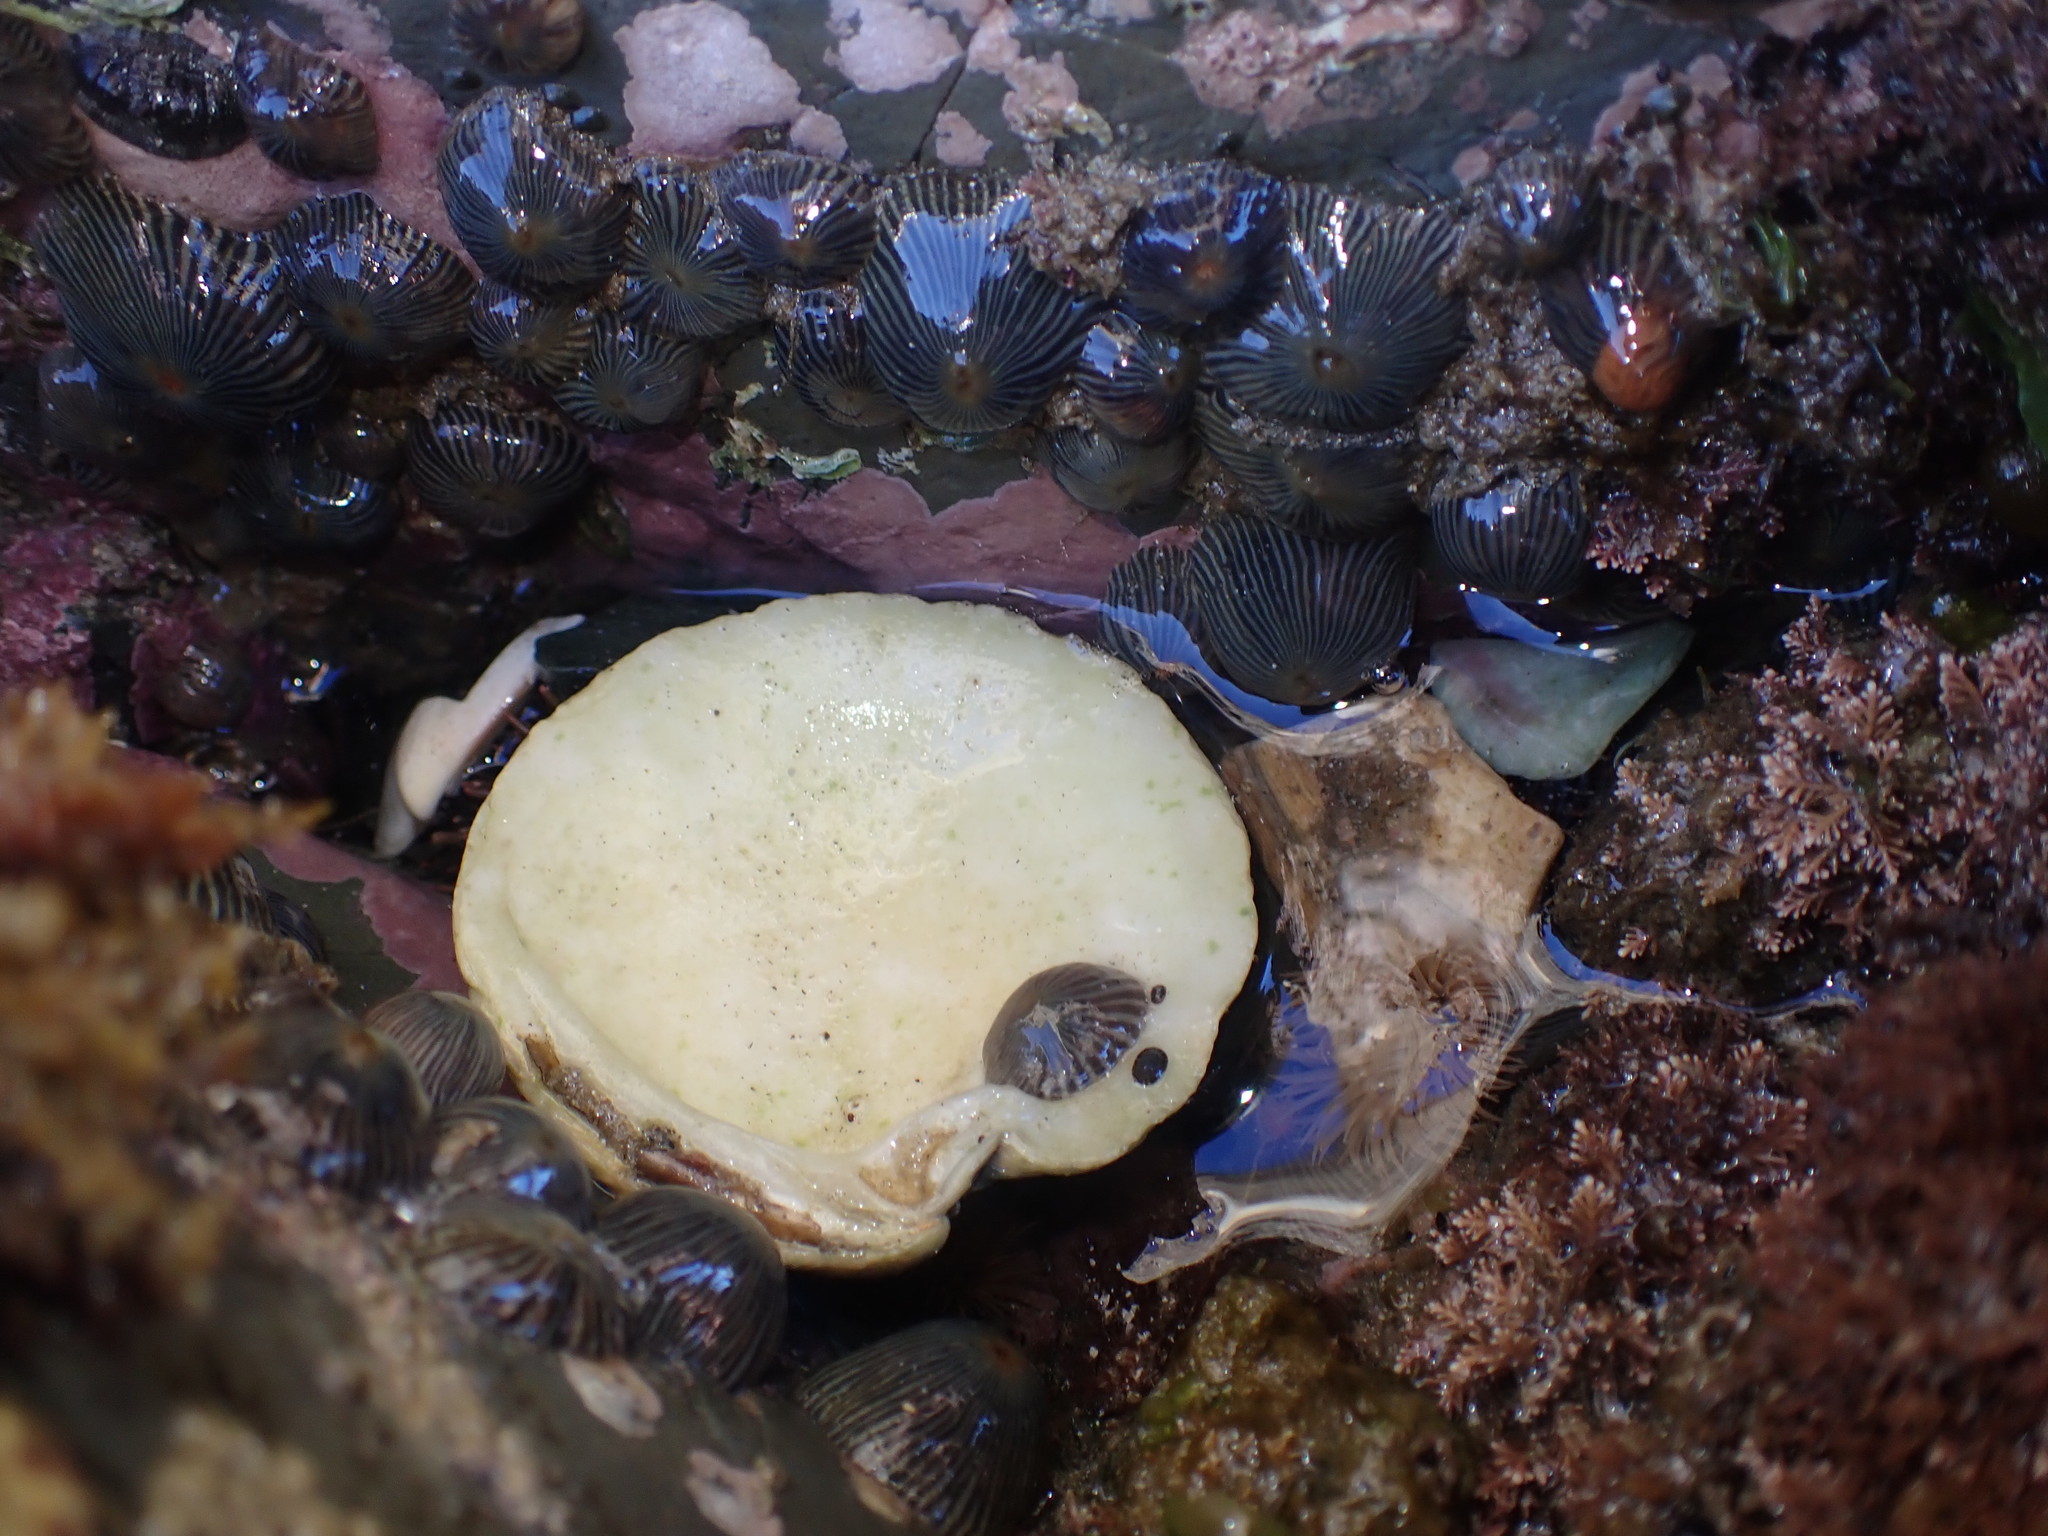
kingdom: Animalia
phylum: Cnidaria
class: Anthozoa
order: Actiniaria
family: Diadumenidae
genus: Diadumene
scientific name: Diadumene neozelanica
